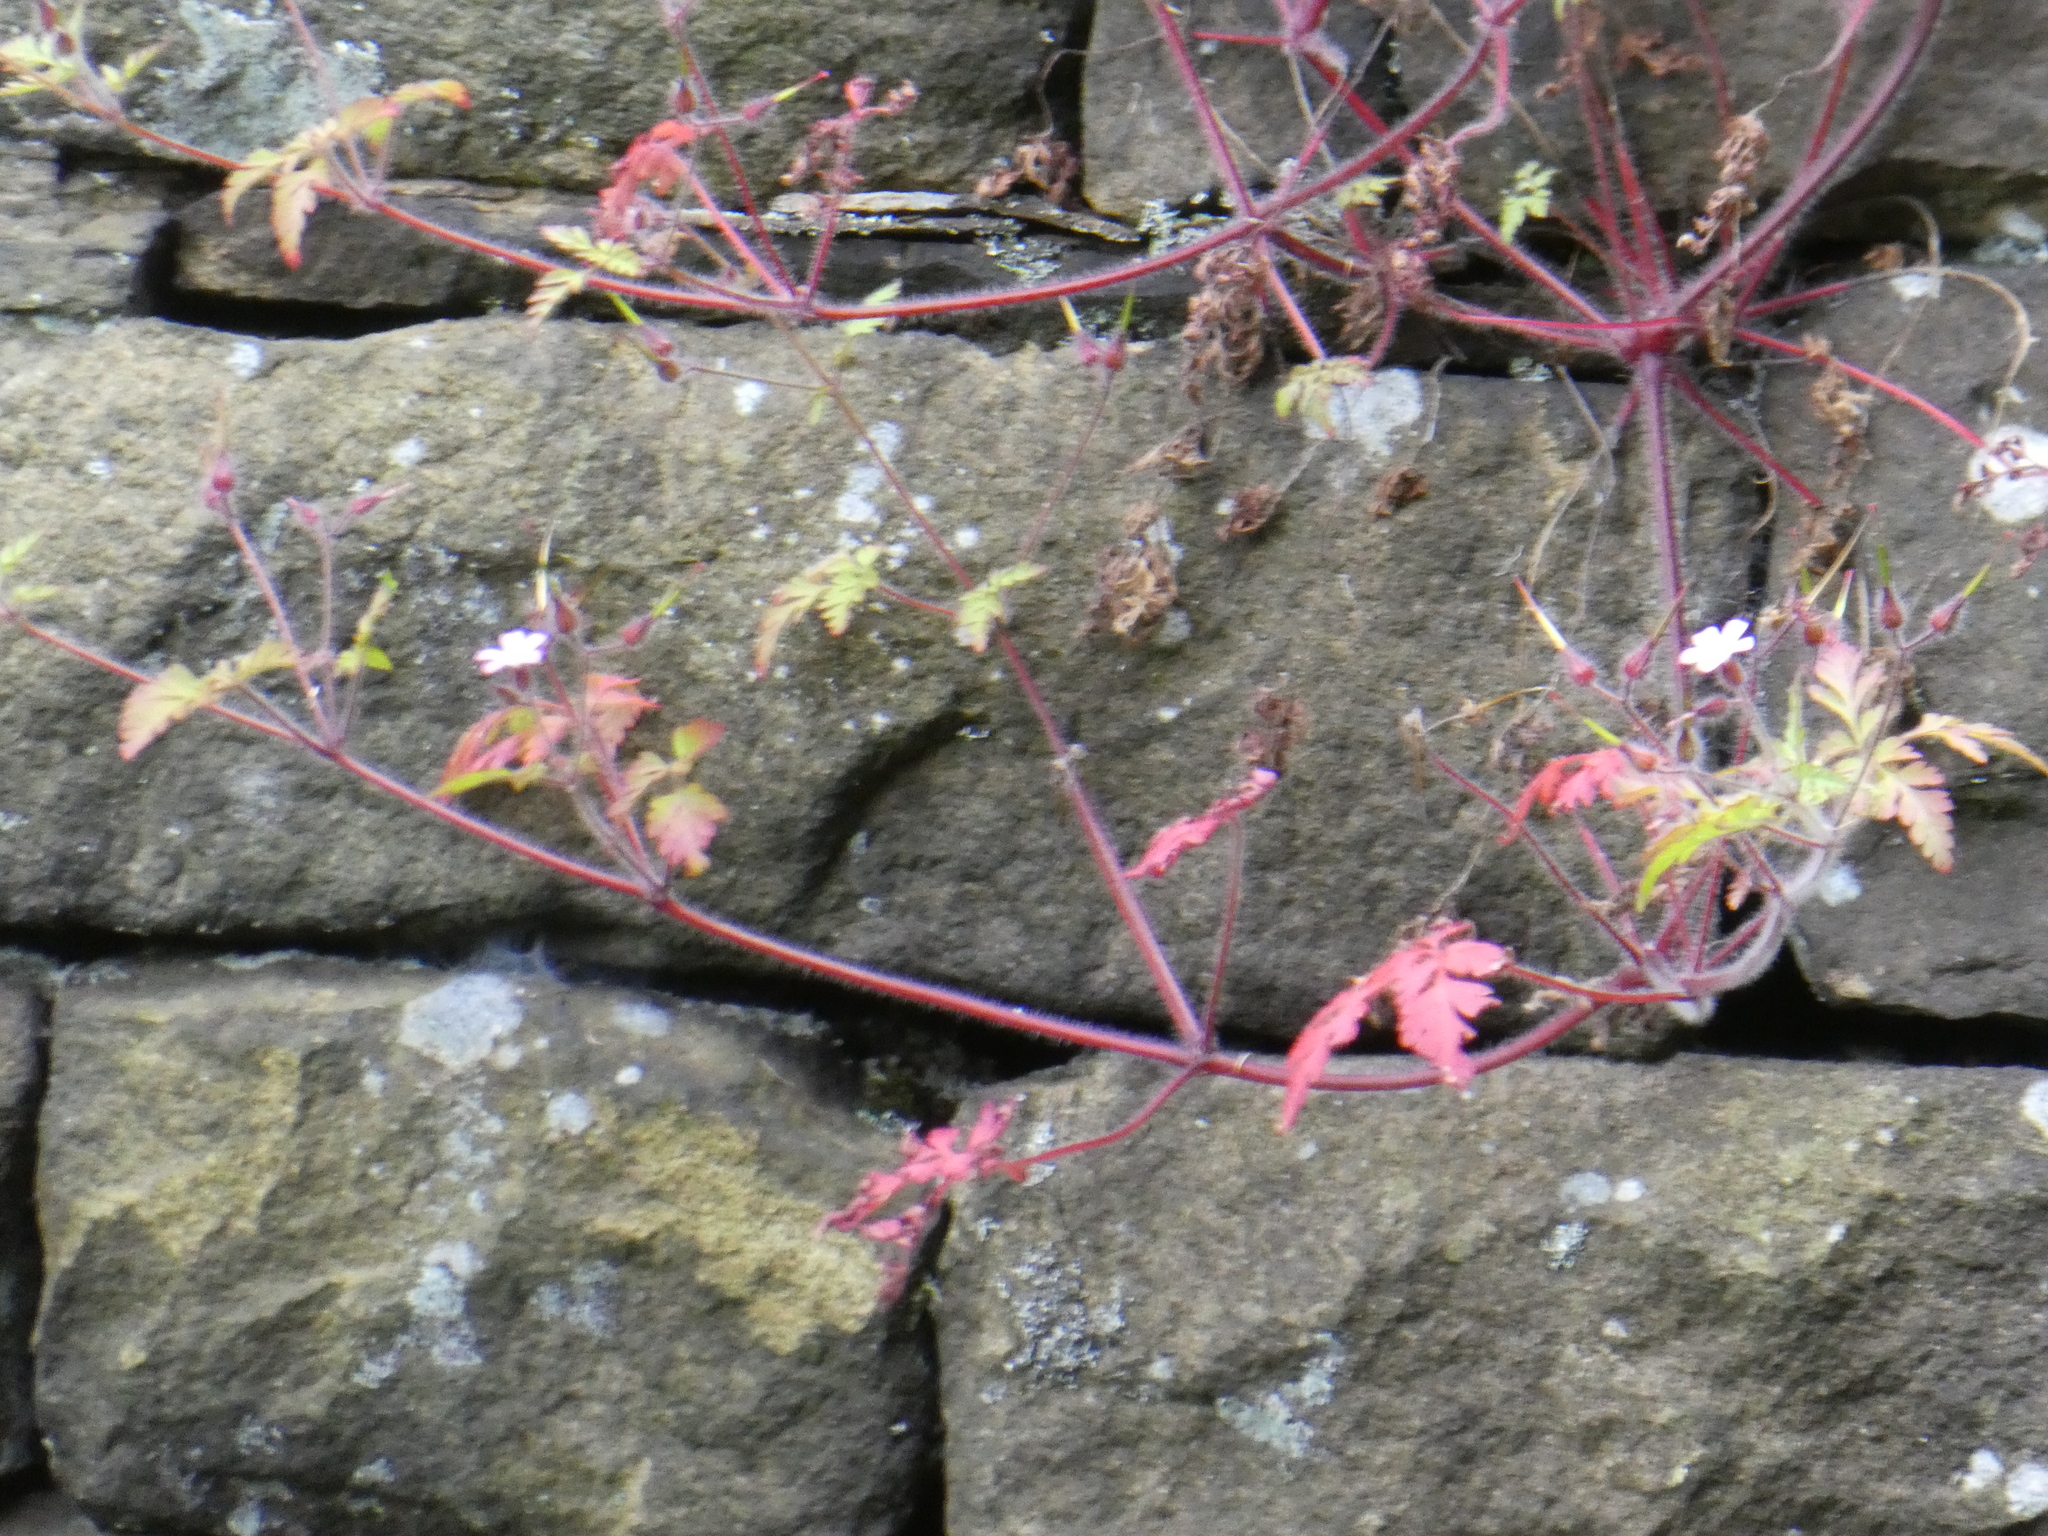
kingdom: Plantae
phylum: Tracheophyta
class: Magnoliopsida
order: Geraniales
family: Geraniaceae
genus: Geranium
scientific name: Geranium robertianum
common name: Herb-robert
